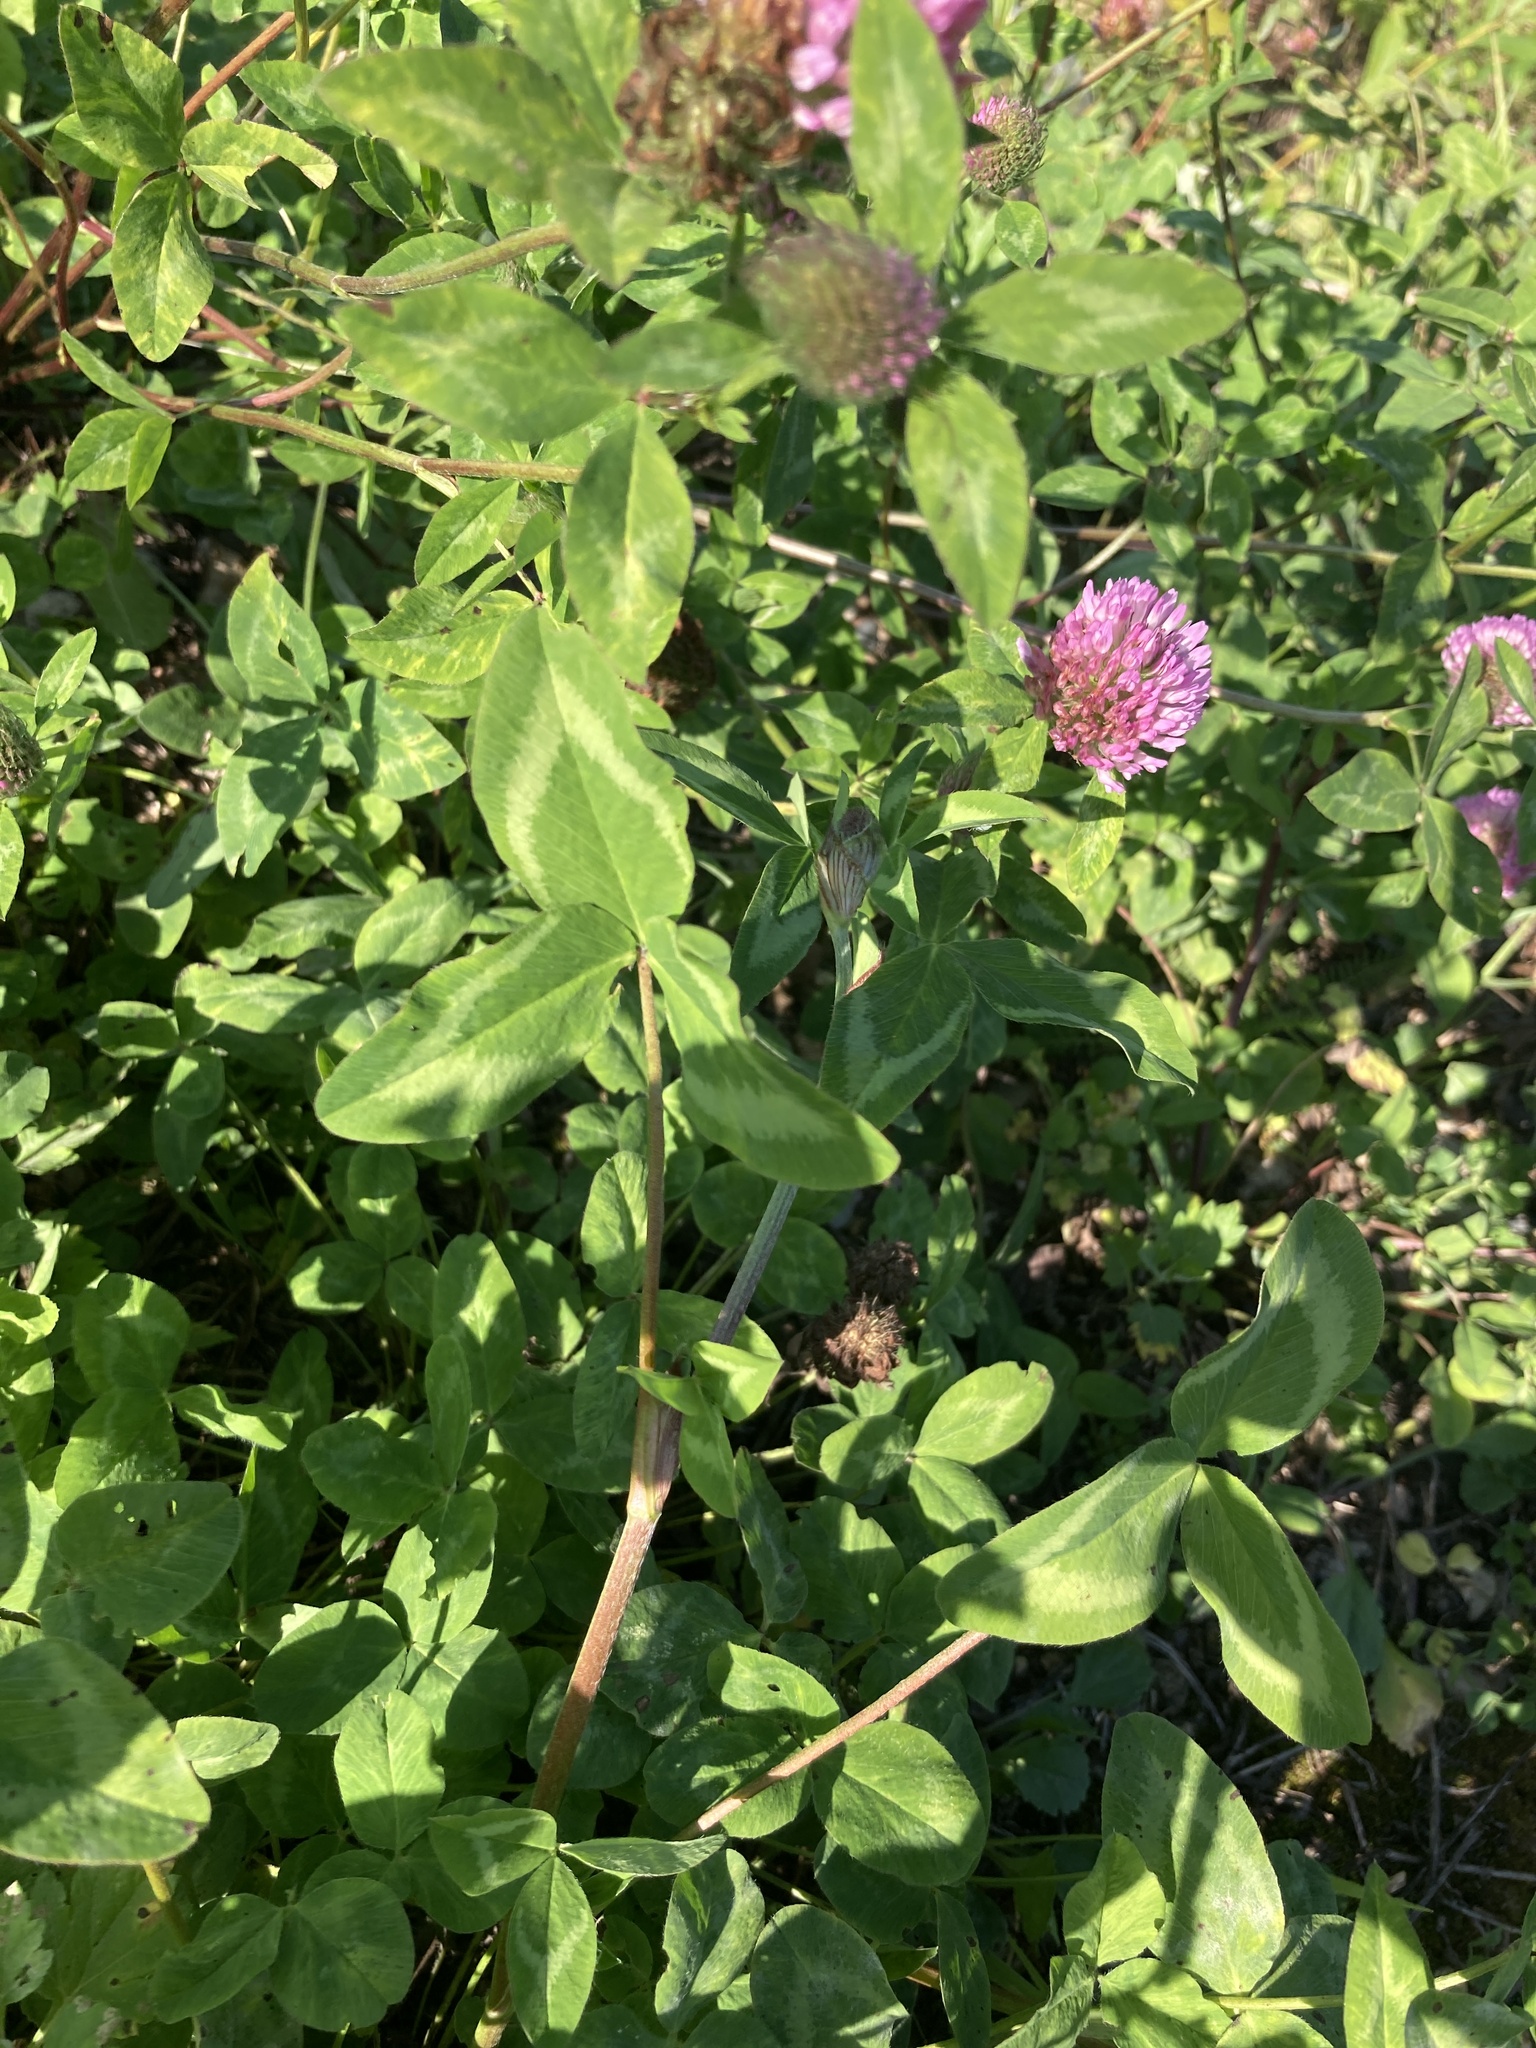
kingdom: Plantae
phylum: Tracheophyta
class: Magnoliopsida
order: Fabales
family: Fabaceae
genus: Trifolium
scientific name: Trifolium pratense
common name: Red clover
